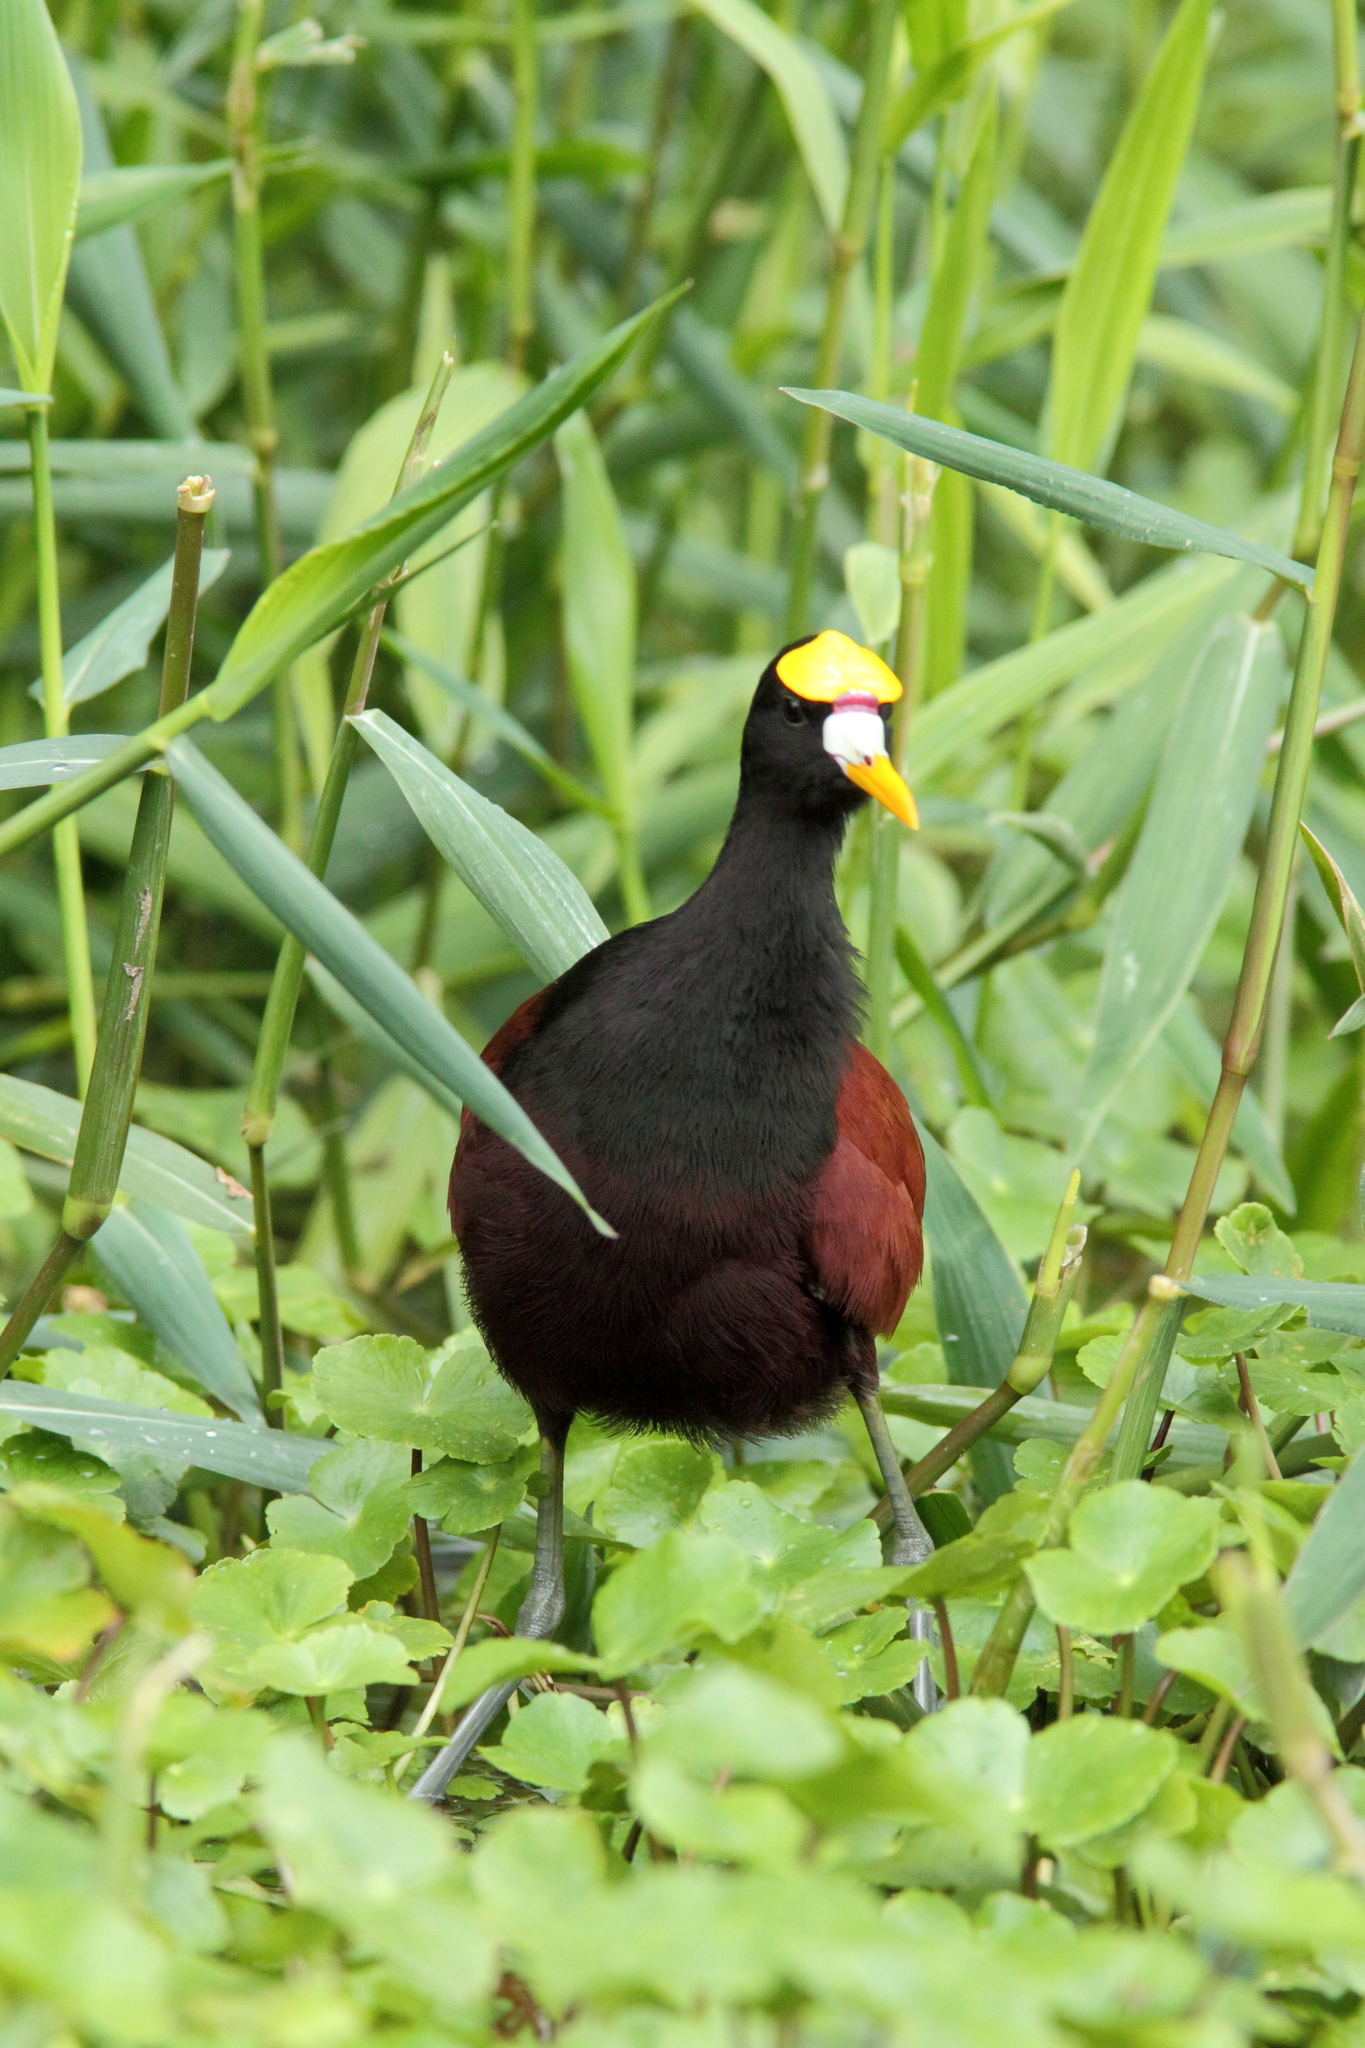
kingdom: Animalia
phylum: Chordata
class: Aves
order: Charadriiformes
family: Jacanidae
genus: Jacana
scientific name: Jacana spinosa
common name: Northern jacana
